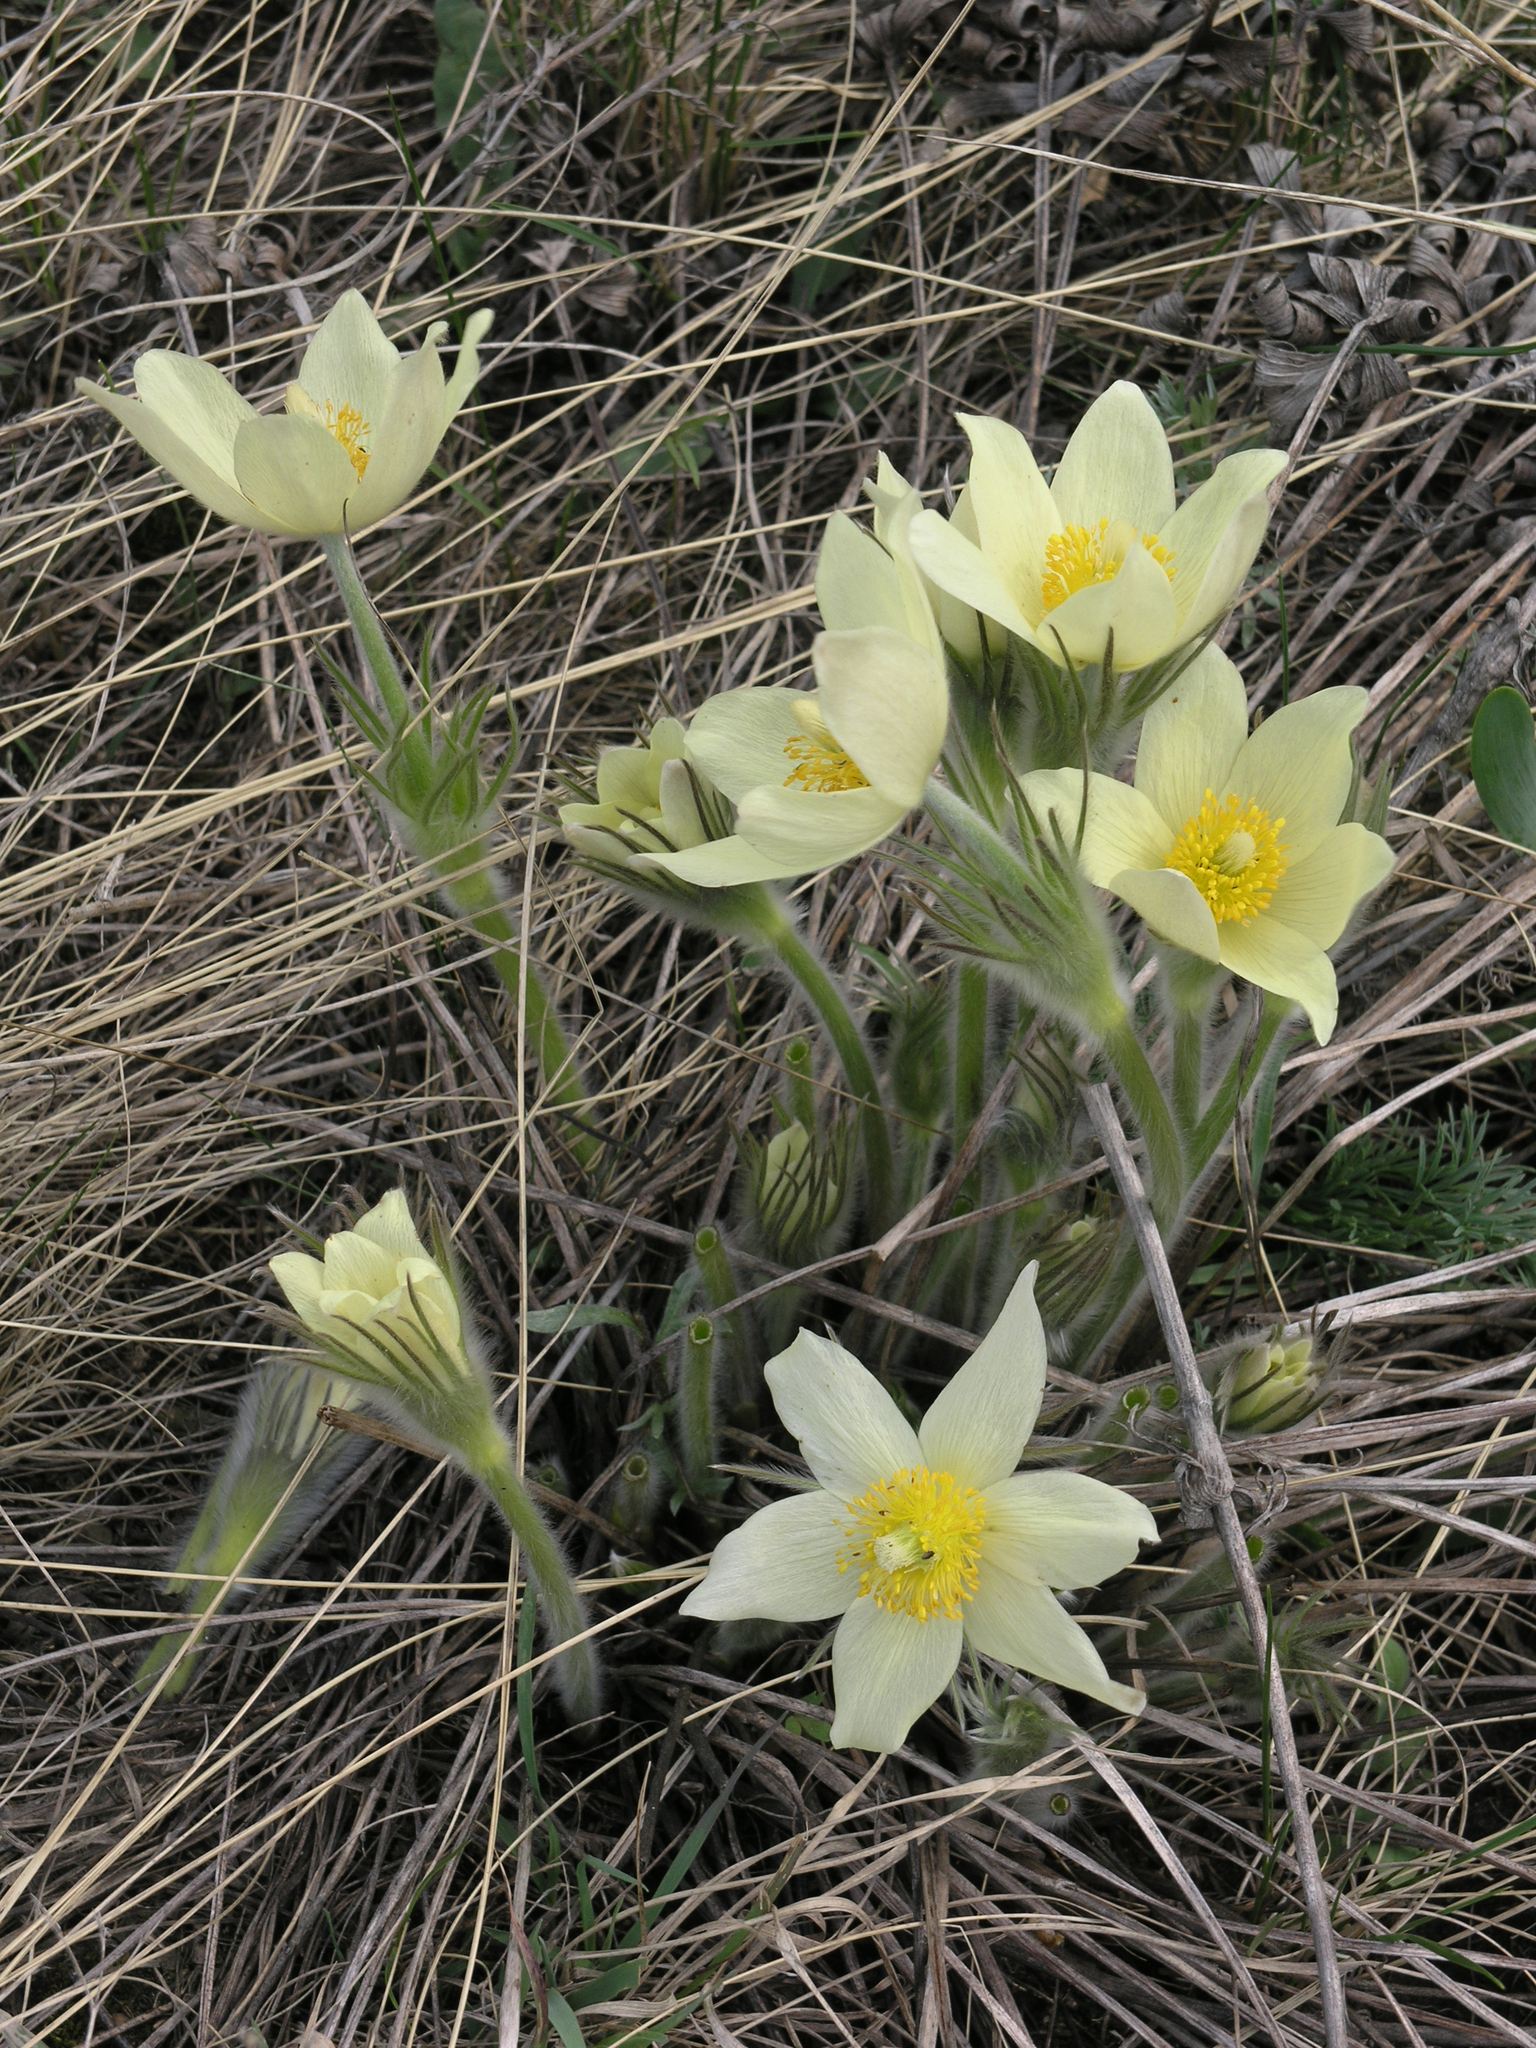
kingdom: Plantae
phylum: Tracheophyta
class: Magnoliopsida
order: Ranunculales
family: Ranunculaceae
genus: Pulsatilla
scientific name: Pulsatilla patens
